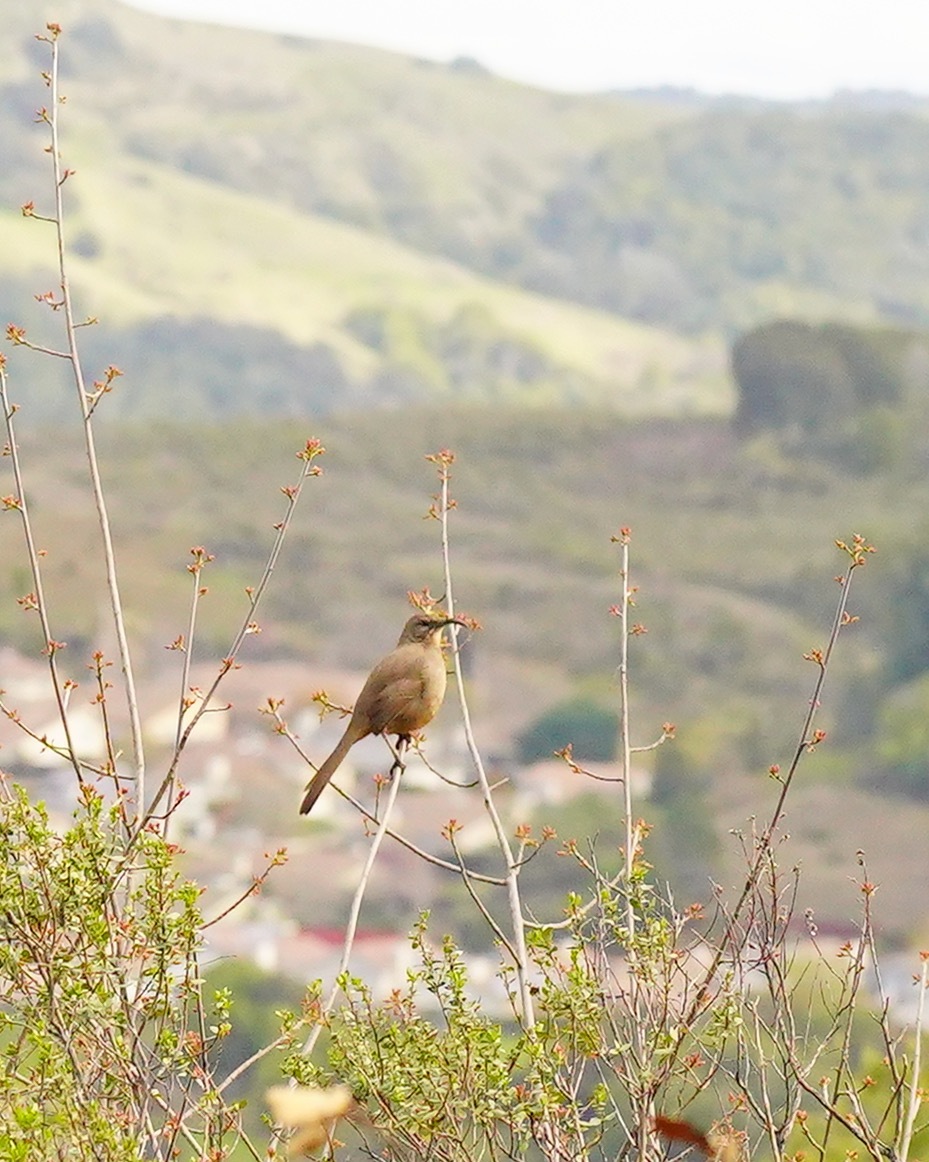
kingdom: Animalia
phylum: Chordata
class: Aves
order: Passeriformes
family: Mimidae
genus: Toxostoma
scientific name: Toxostoma redivivum
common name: California thrasher
